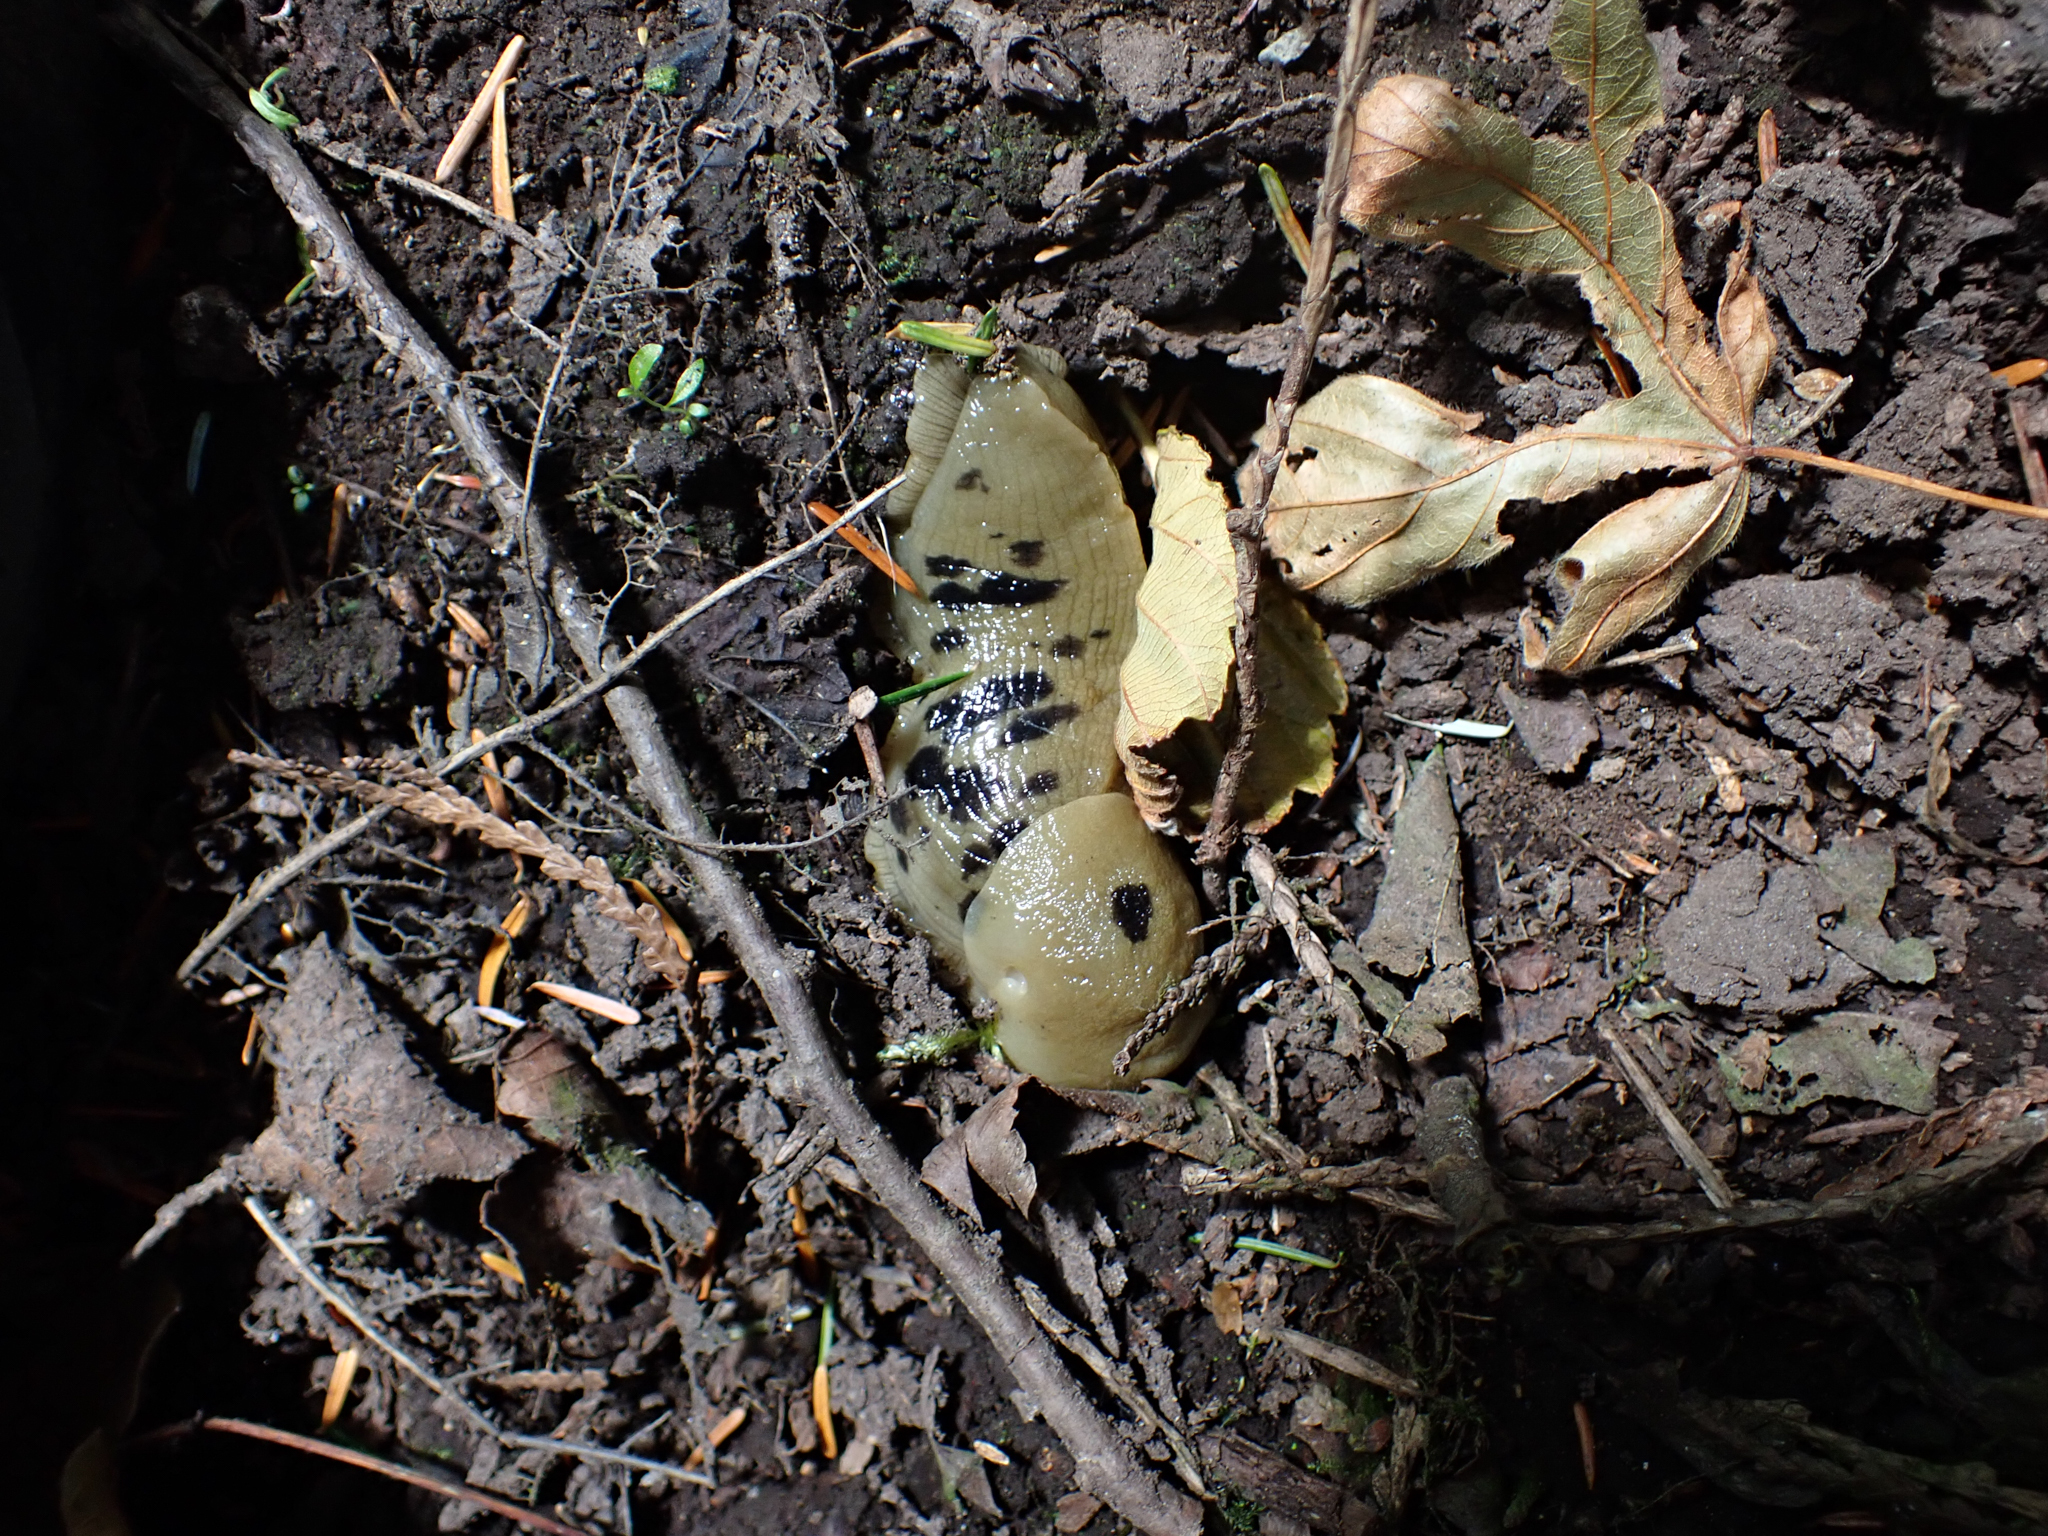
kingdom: Animalia
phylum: Mollusca
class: Gastropoda
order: Stylommatophora
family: Ariolimacidae
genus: Ariolimax
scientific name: Ariolimax columbianus
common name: Pacific banana slug
